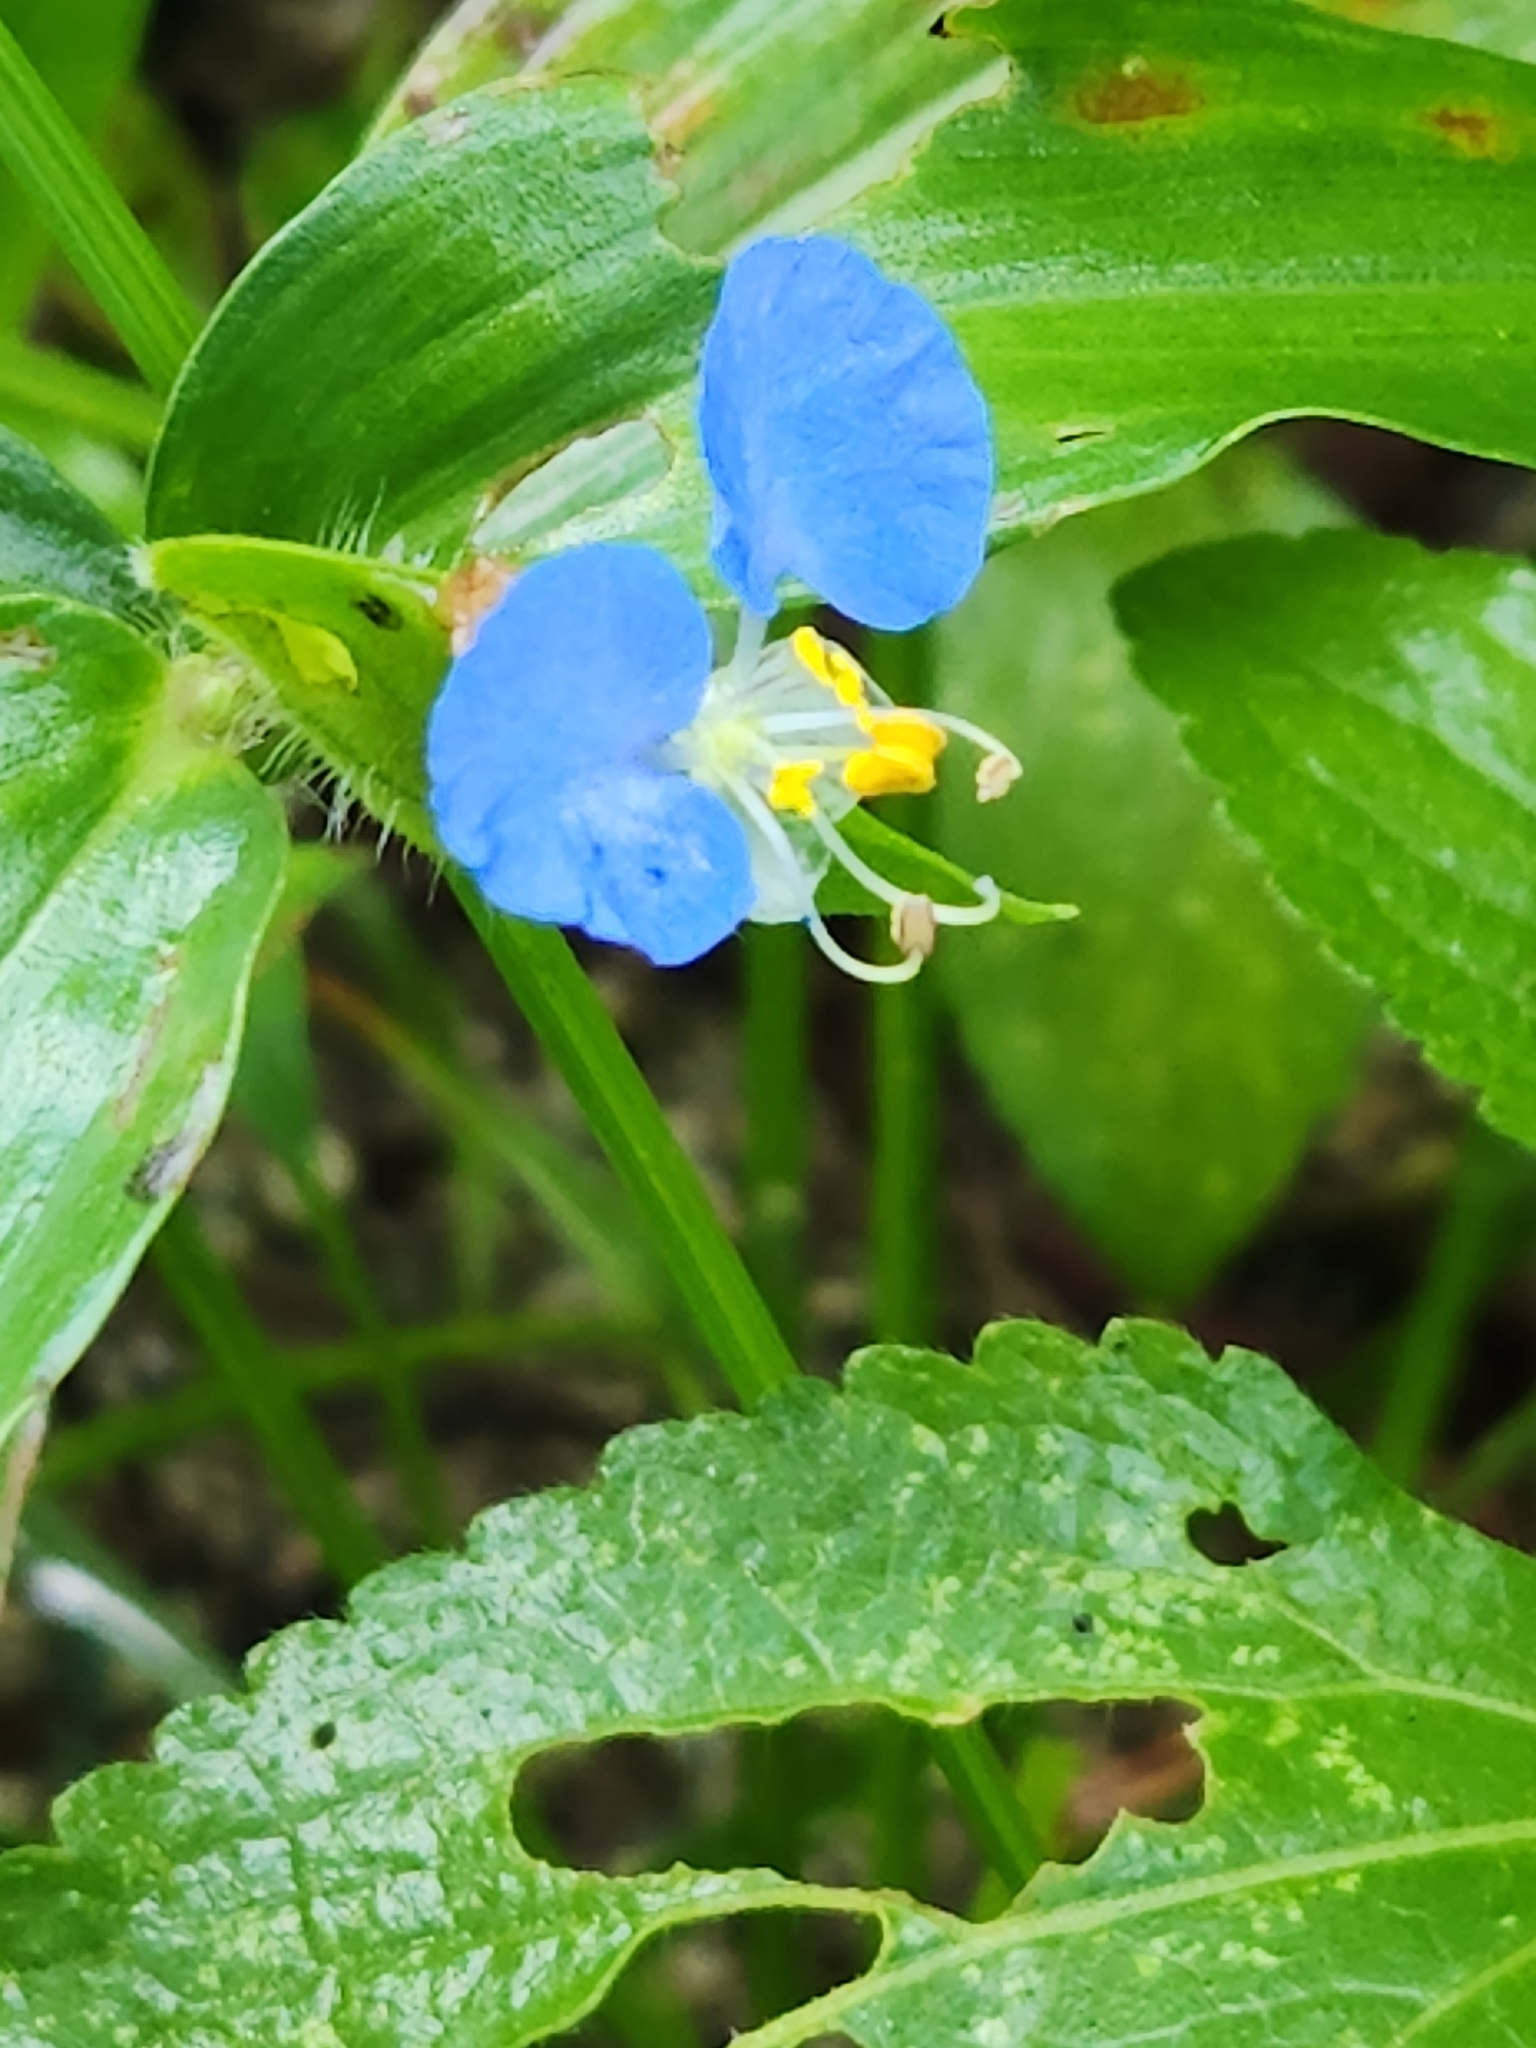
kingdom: Plantae
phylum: Tracheophyta
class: Liliopsida
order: Commelinales
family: Commelinaceae
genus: Commelina
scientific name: Commelina diffusa
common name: Climbing dayflower
